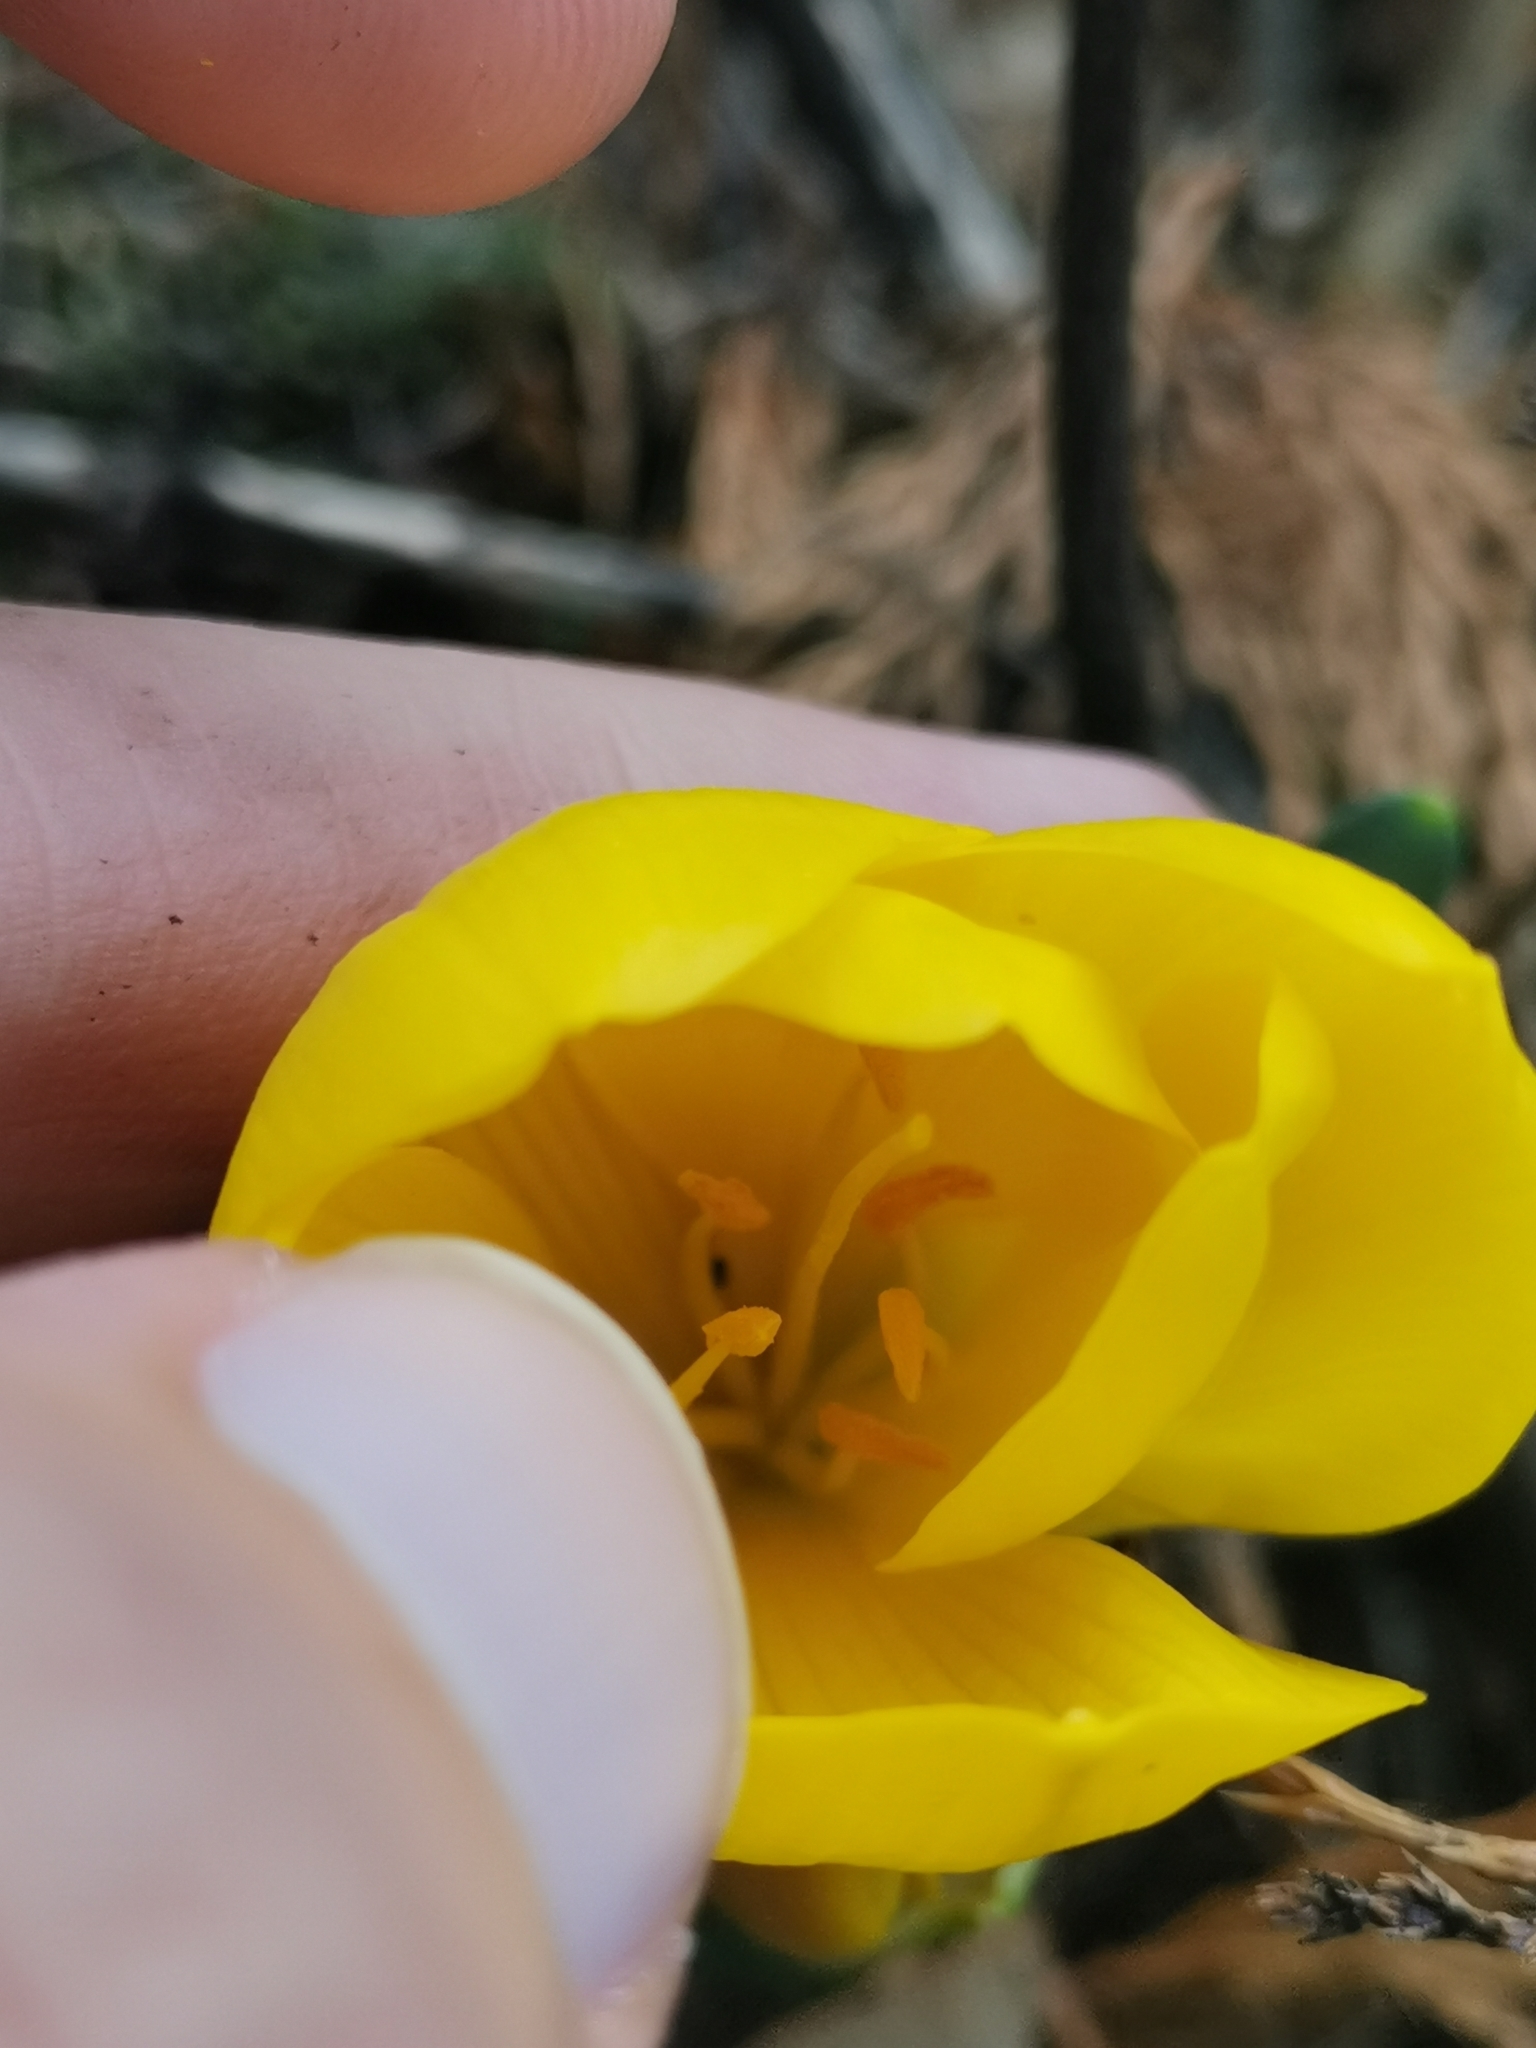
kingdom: Plantae
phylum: Tracheophyta
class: Liliopsida
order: Asparagales
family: Amaryllidaceae
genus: Sternbergia
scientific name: Sternbergia lutea
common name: Winter daffodil
